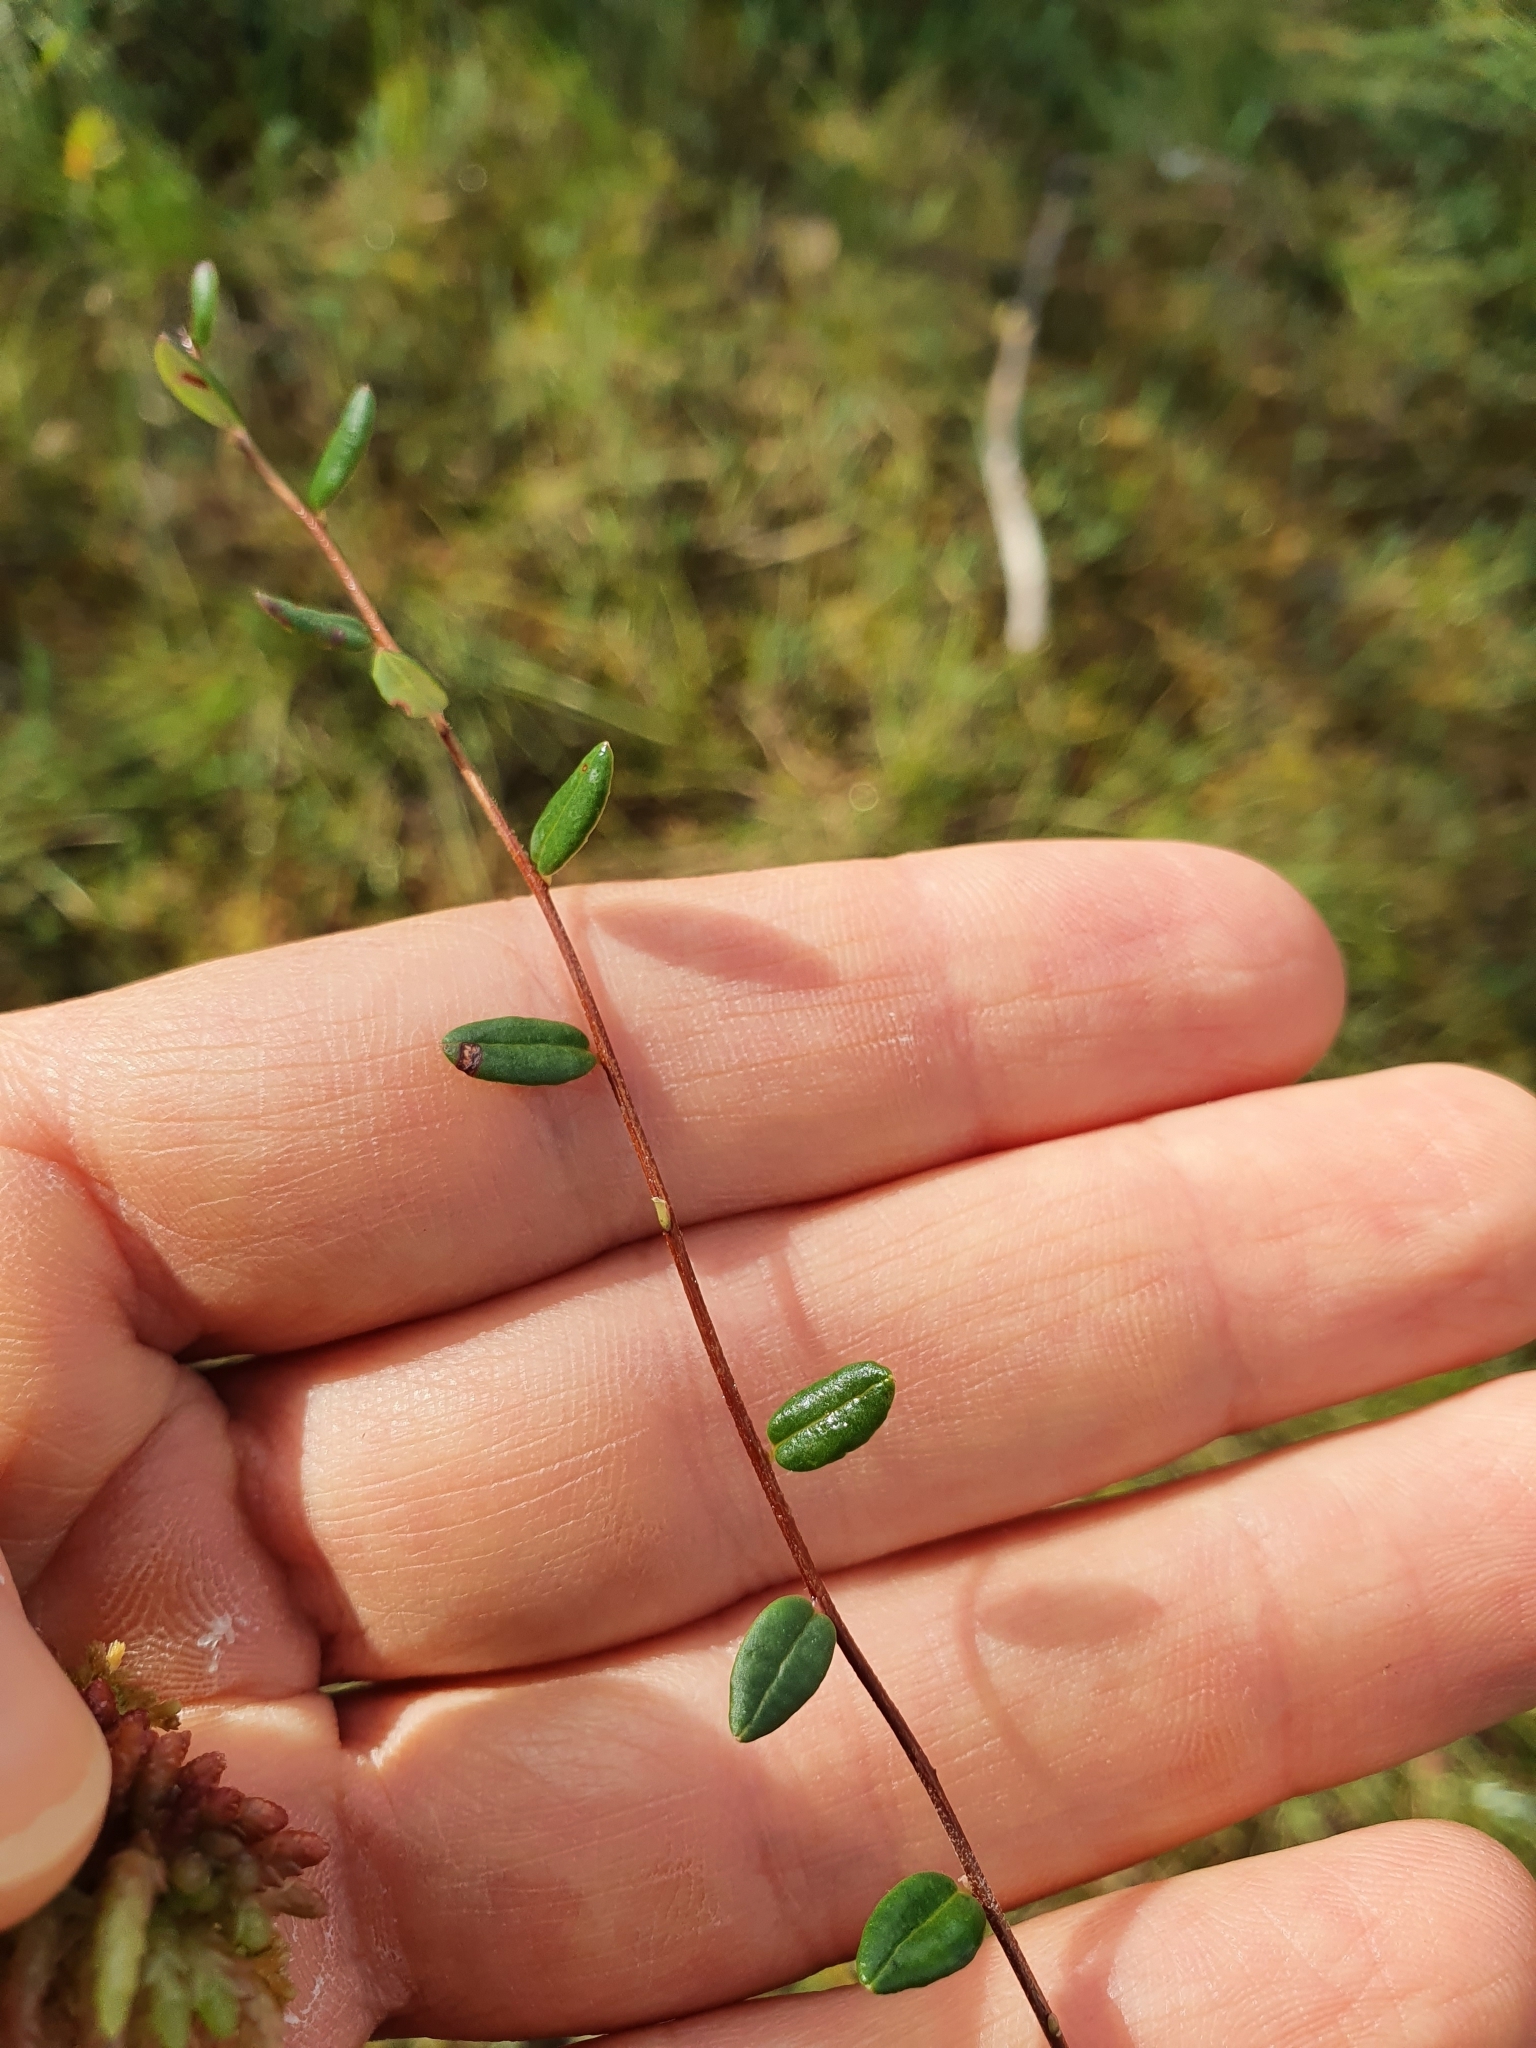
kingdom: Plantae
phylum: Tracheophyta
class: Magnoliopsida
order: Ericales
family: Ericaceae
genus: Vaccinium
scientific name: Vaccinium oxycoccos
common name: Cranberry
